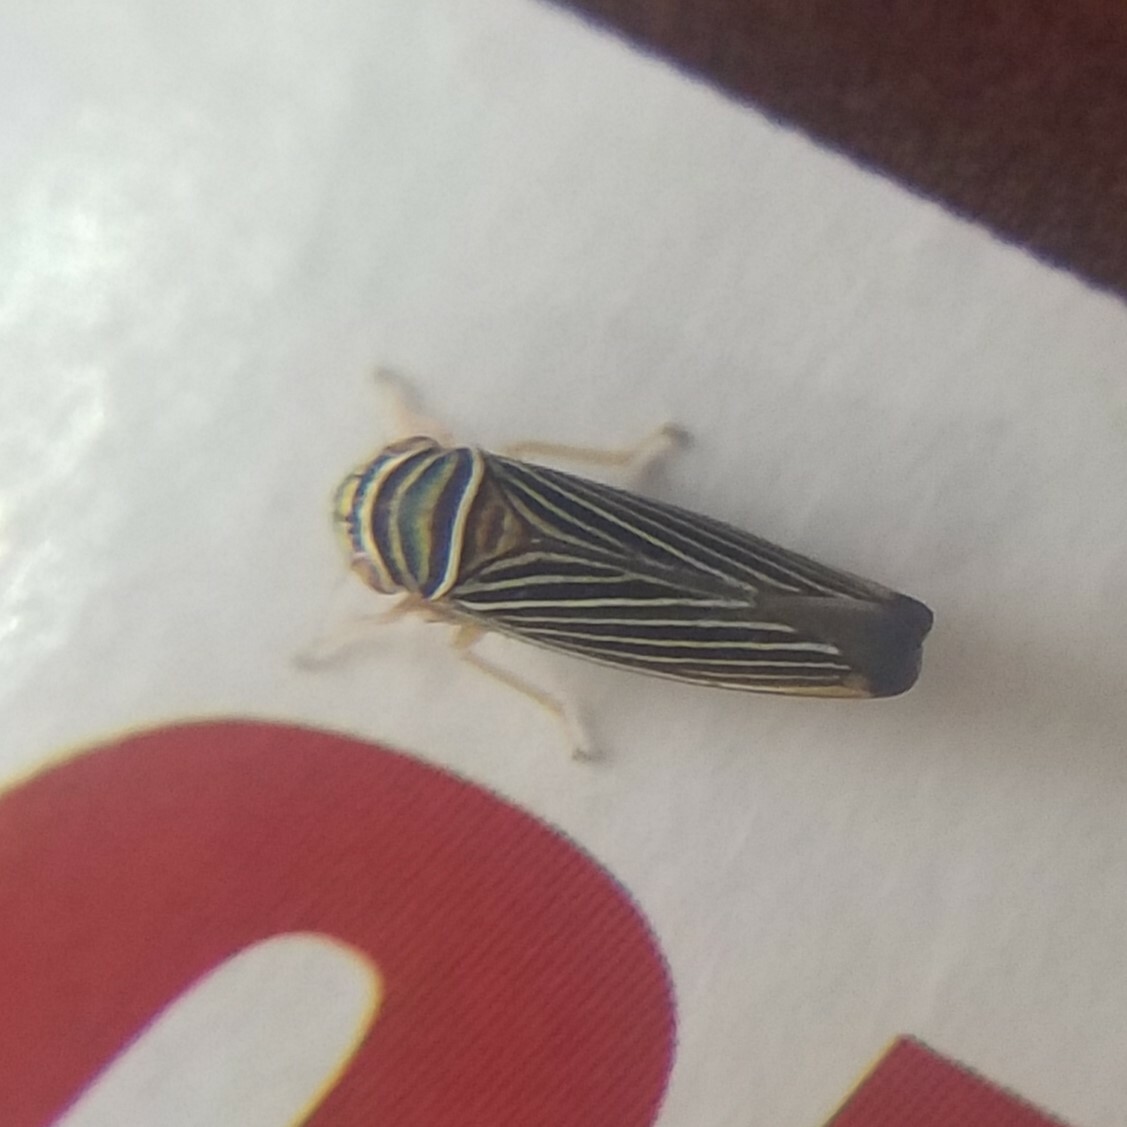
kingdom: Animalia
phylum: Arthropoda
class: Insecta
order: Hemiptera
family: Cicadellidae
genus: Tylozygus
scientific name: Tylozygus bifidus
